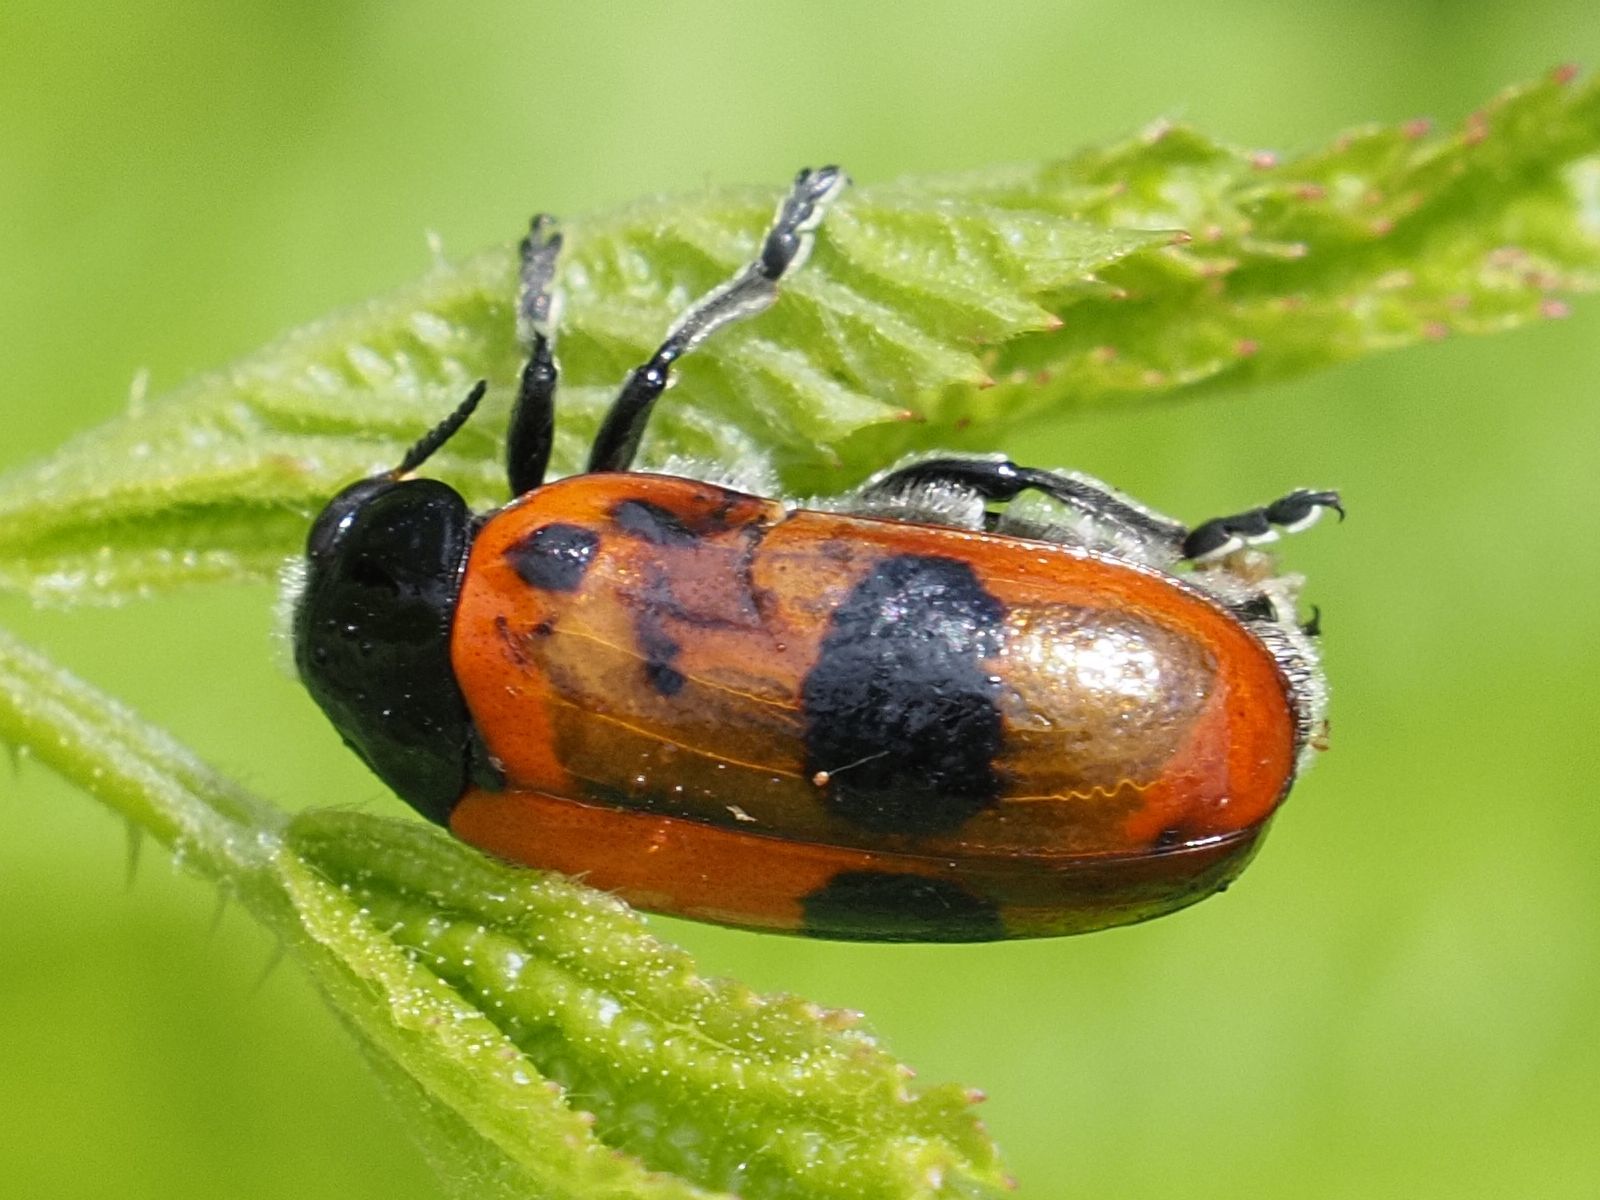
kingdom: Animalia
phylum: Arthropoda
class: Insecta
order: Coleoptera
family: Chrysomelidae
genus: Clytra
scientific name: Clytra laeviuscula
